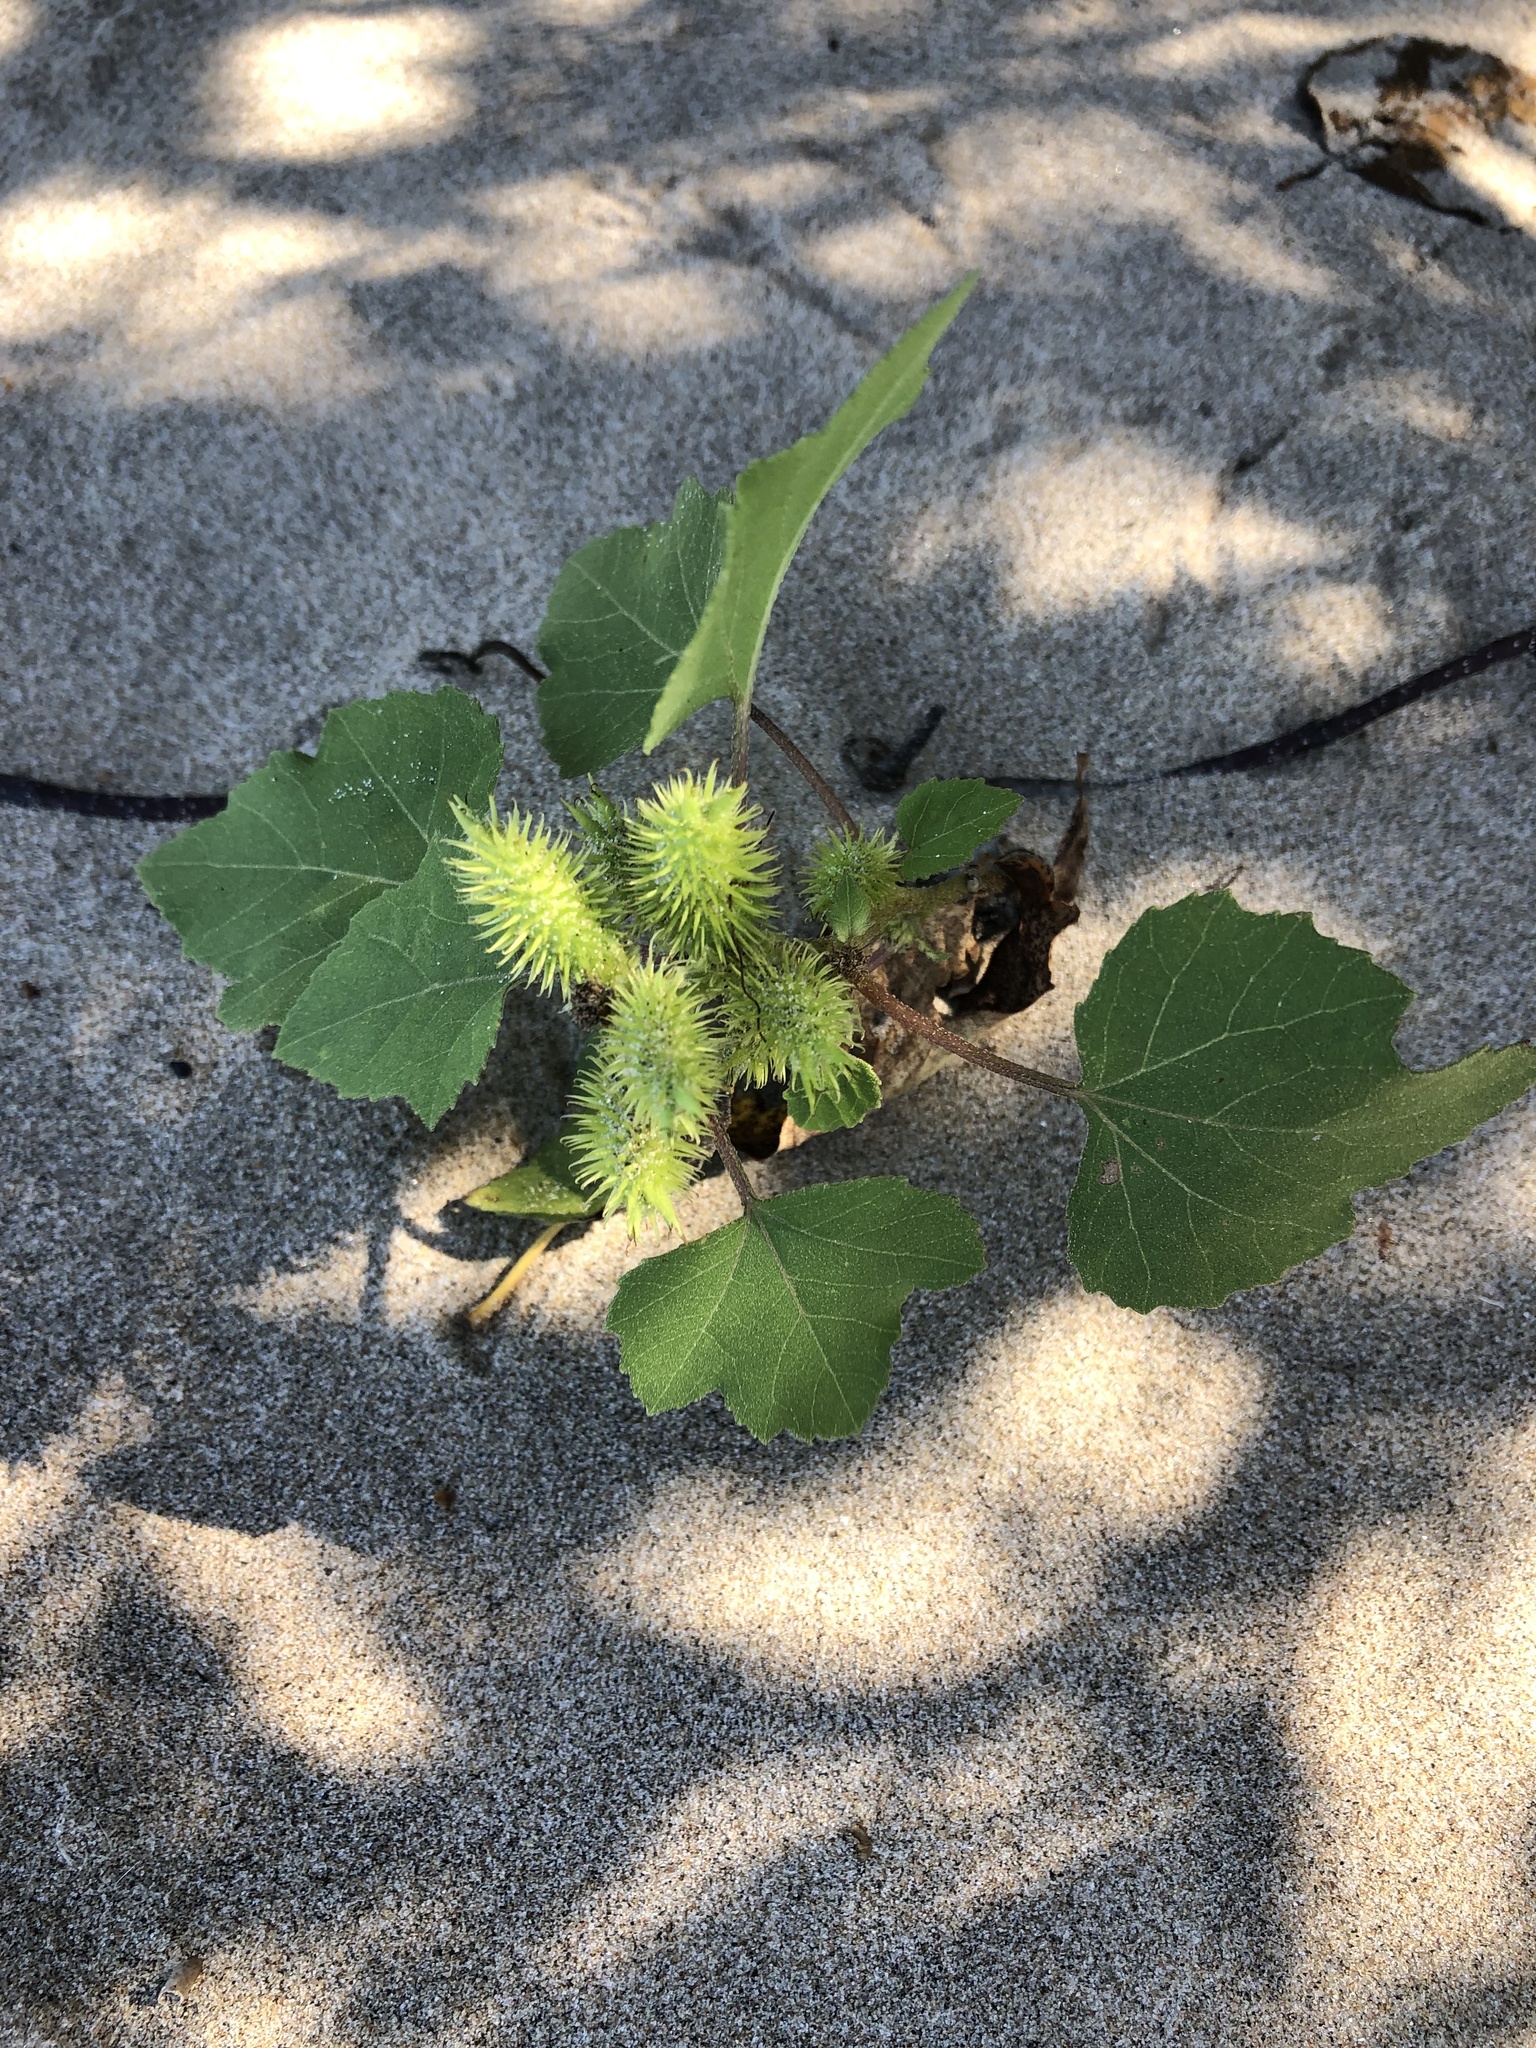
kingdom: Plantae
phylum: Tracheophyta
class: Magnoliopsida
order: Asterales
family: Asteraceae
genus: Xanthium
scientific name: Xanthium strumarium
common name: Rough cocklebur
